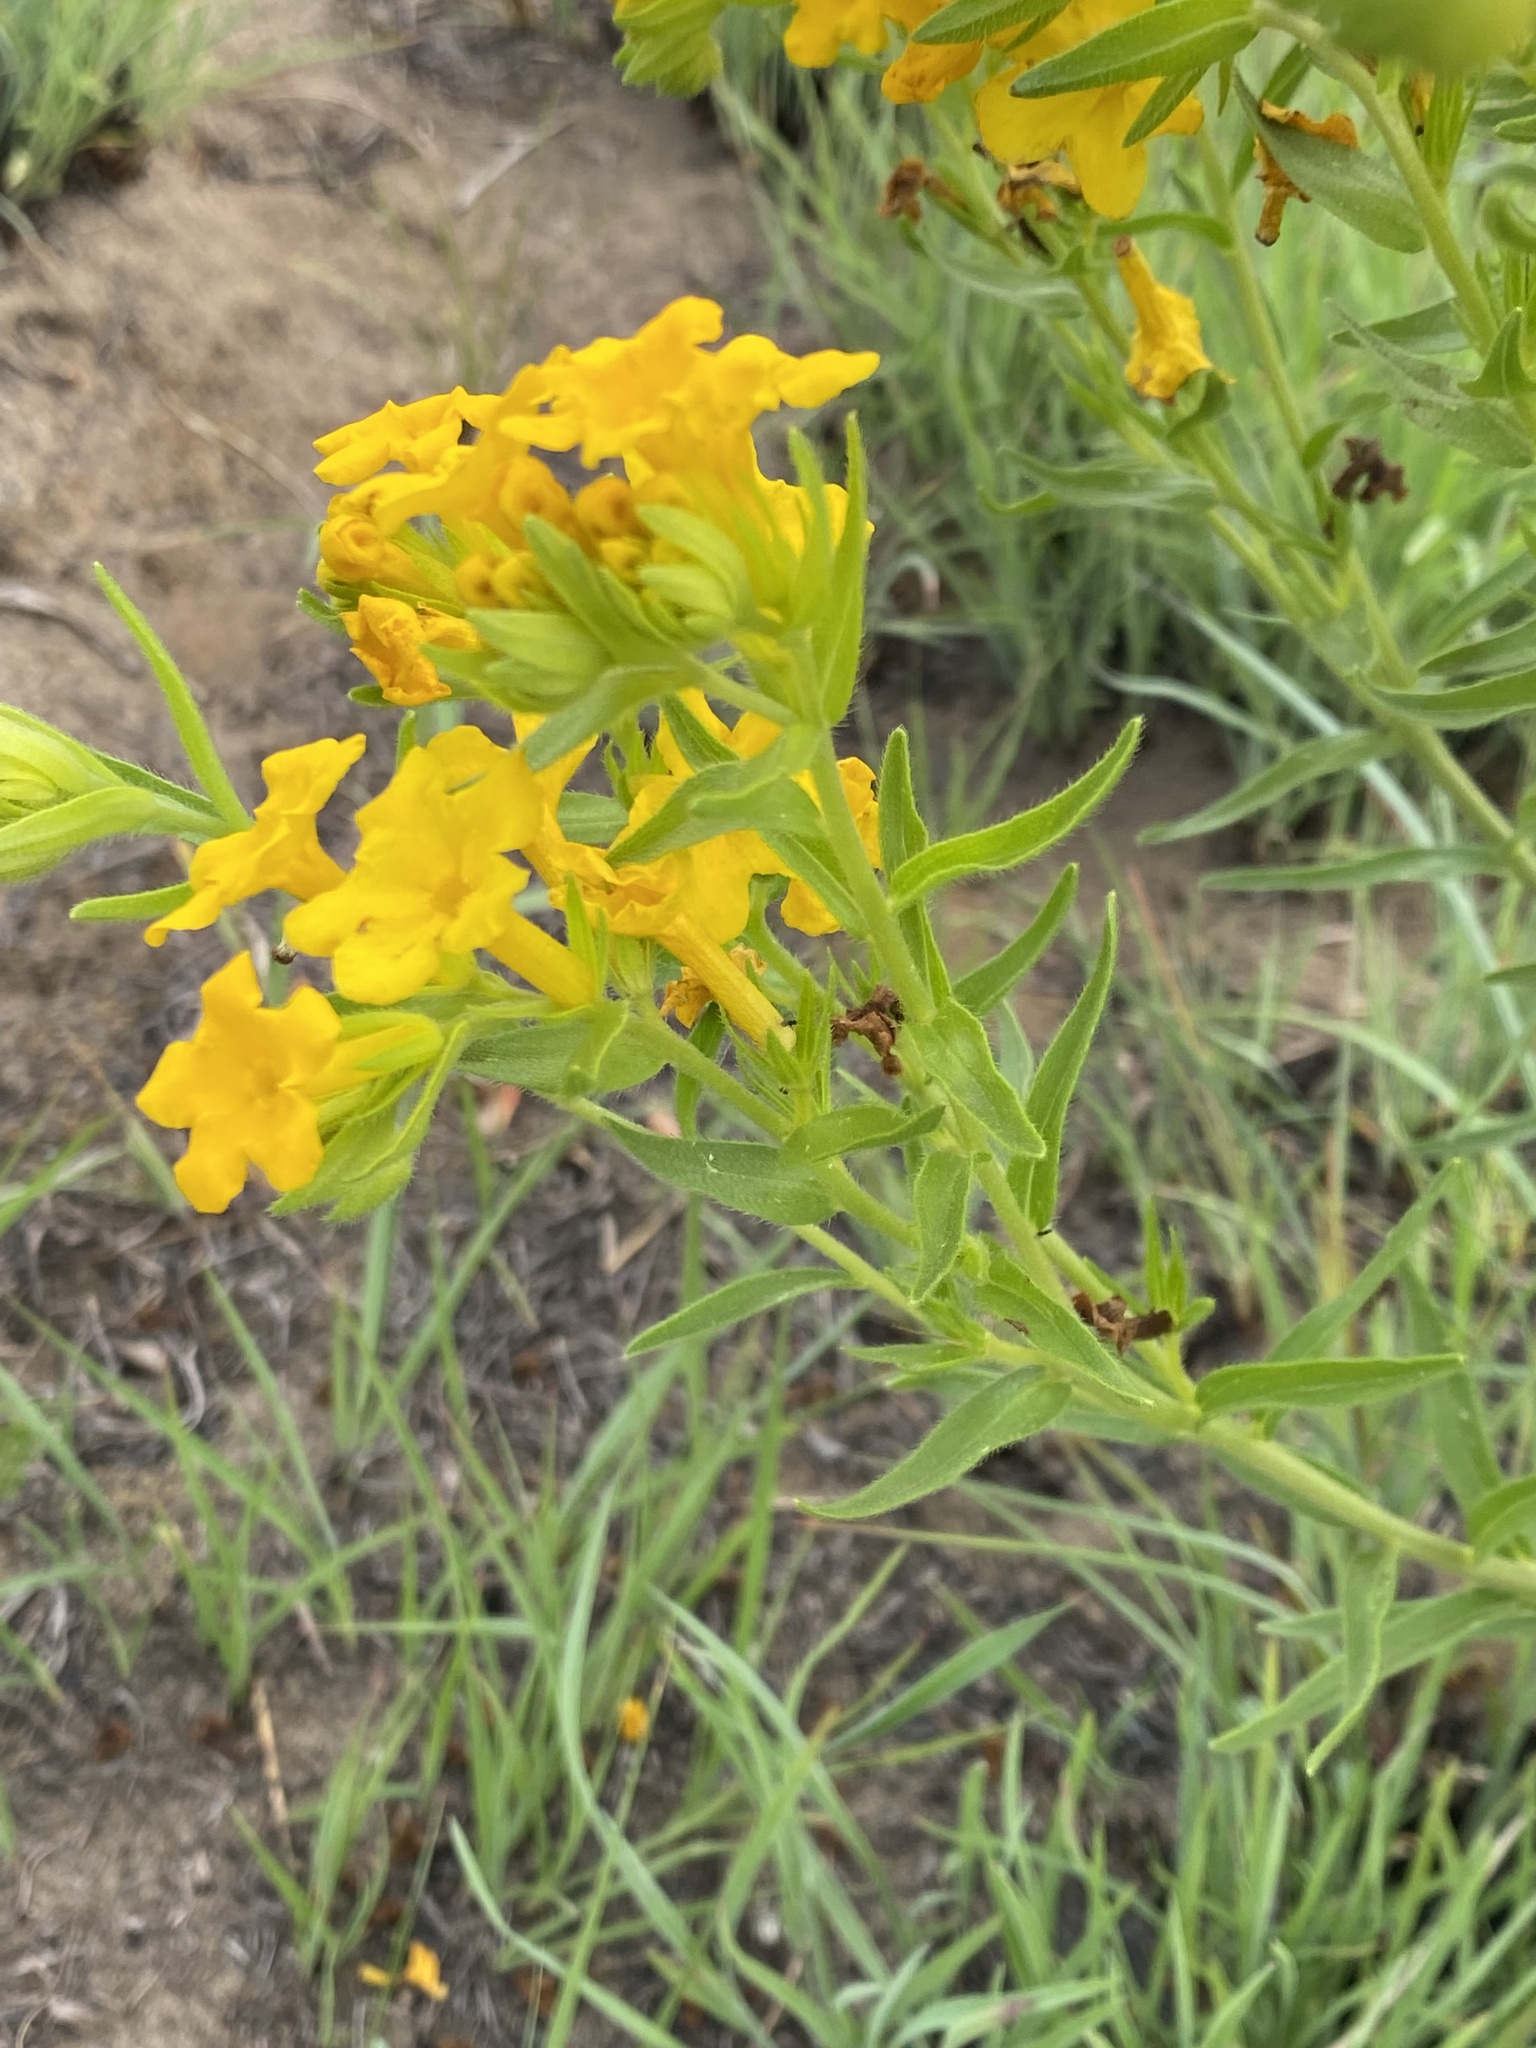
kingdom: Plantae
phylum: Tracheophyta
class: Magnoliopsida
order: Boraginales
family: Boraginaceae
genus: Lithospermum
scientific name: Lithospermum caroliniense
